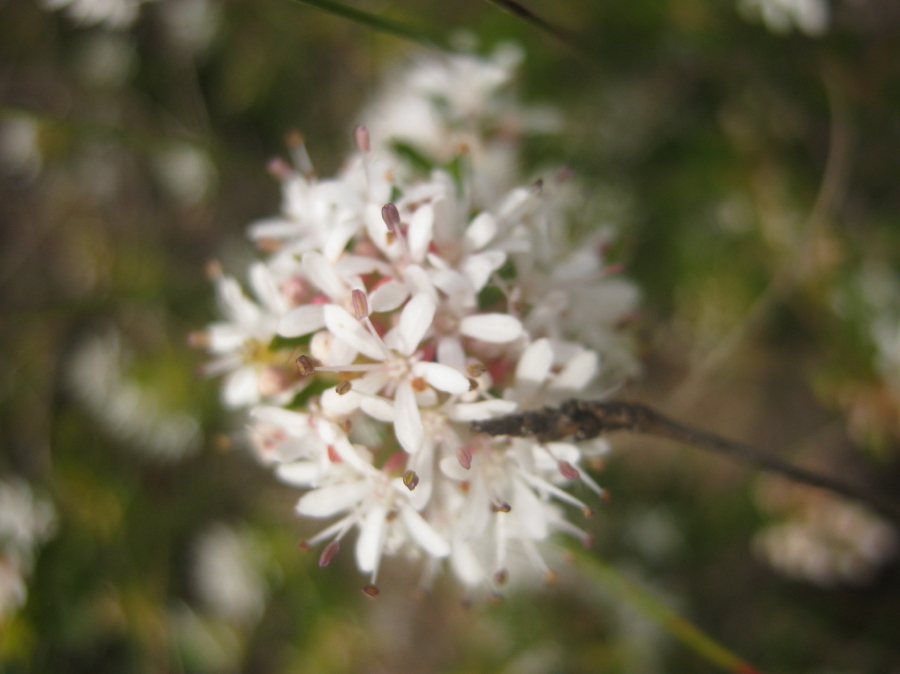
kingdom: Plantae
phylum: Tracheophyta
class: Magnoliopsida
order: Sapindales
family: Rutaceae
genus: Agathosma
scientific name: Agathosma mundtii
